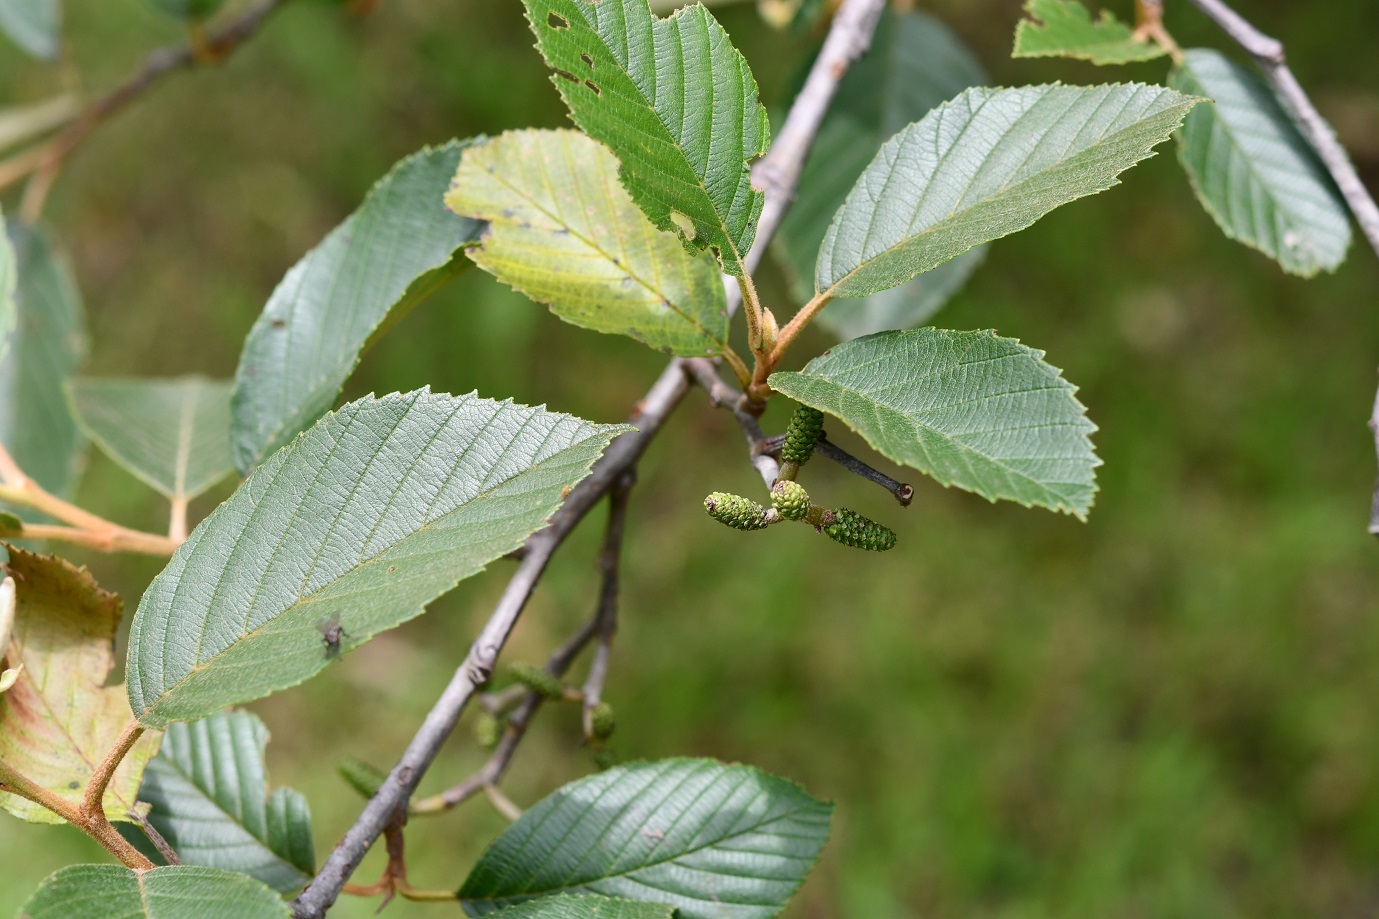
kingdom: Plantae
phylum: Tracheophyta
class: Magnoliopsida
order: Fagales
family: Betulaceae
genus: Alnus
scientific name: Alnus acuminata
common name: Alder
